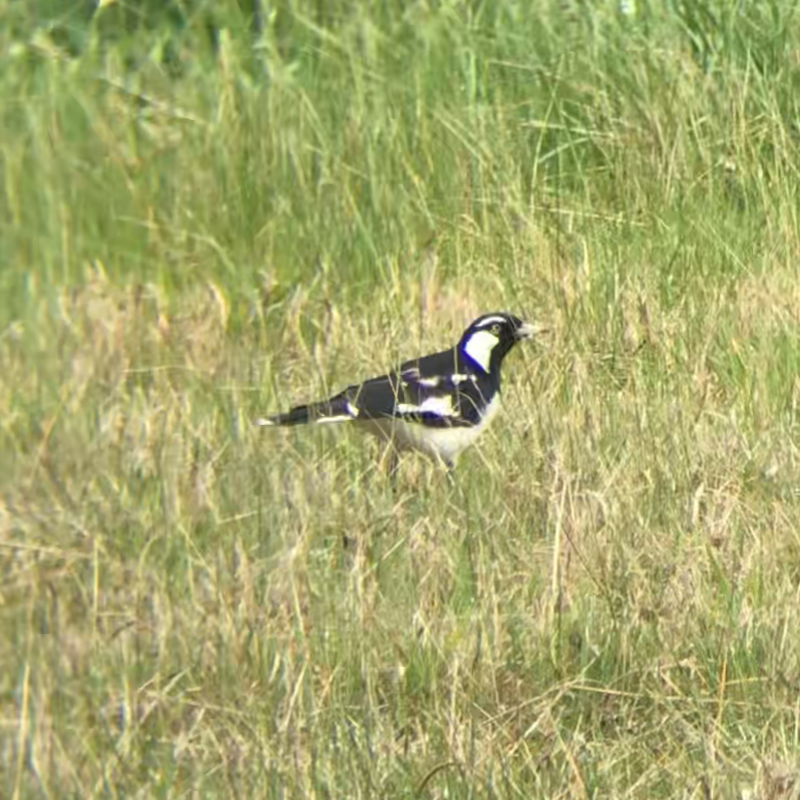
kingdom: Animalia
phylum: Chordata
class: Aves
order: Passeriformes
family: Monarchidae
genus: Grallina
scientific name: Grallina cyanoleuca
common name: Magpie-lark
